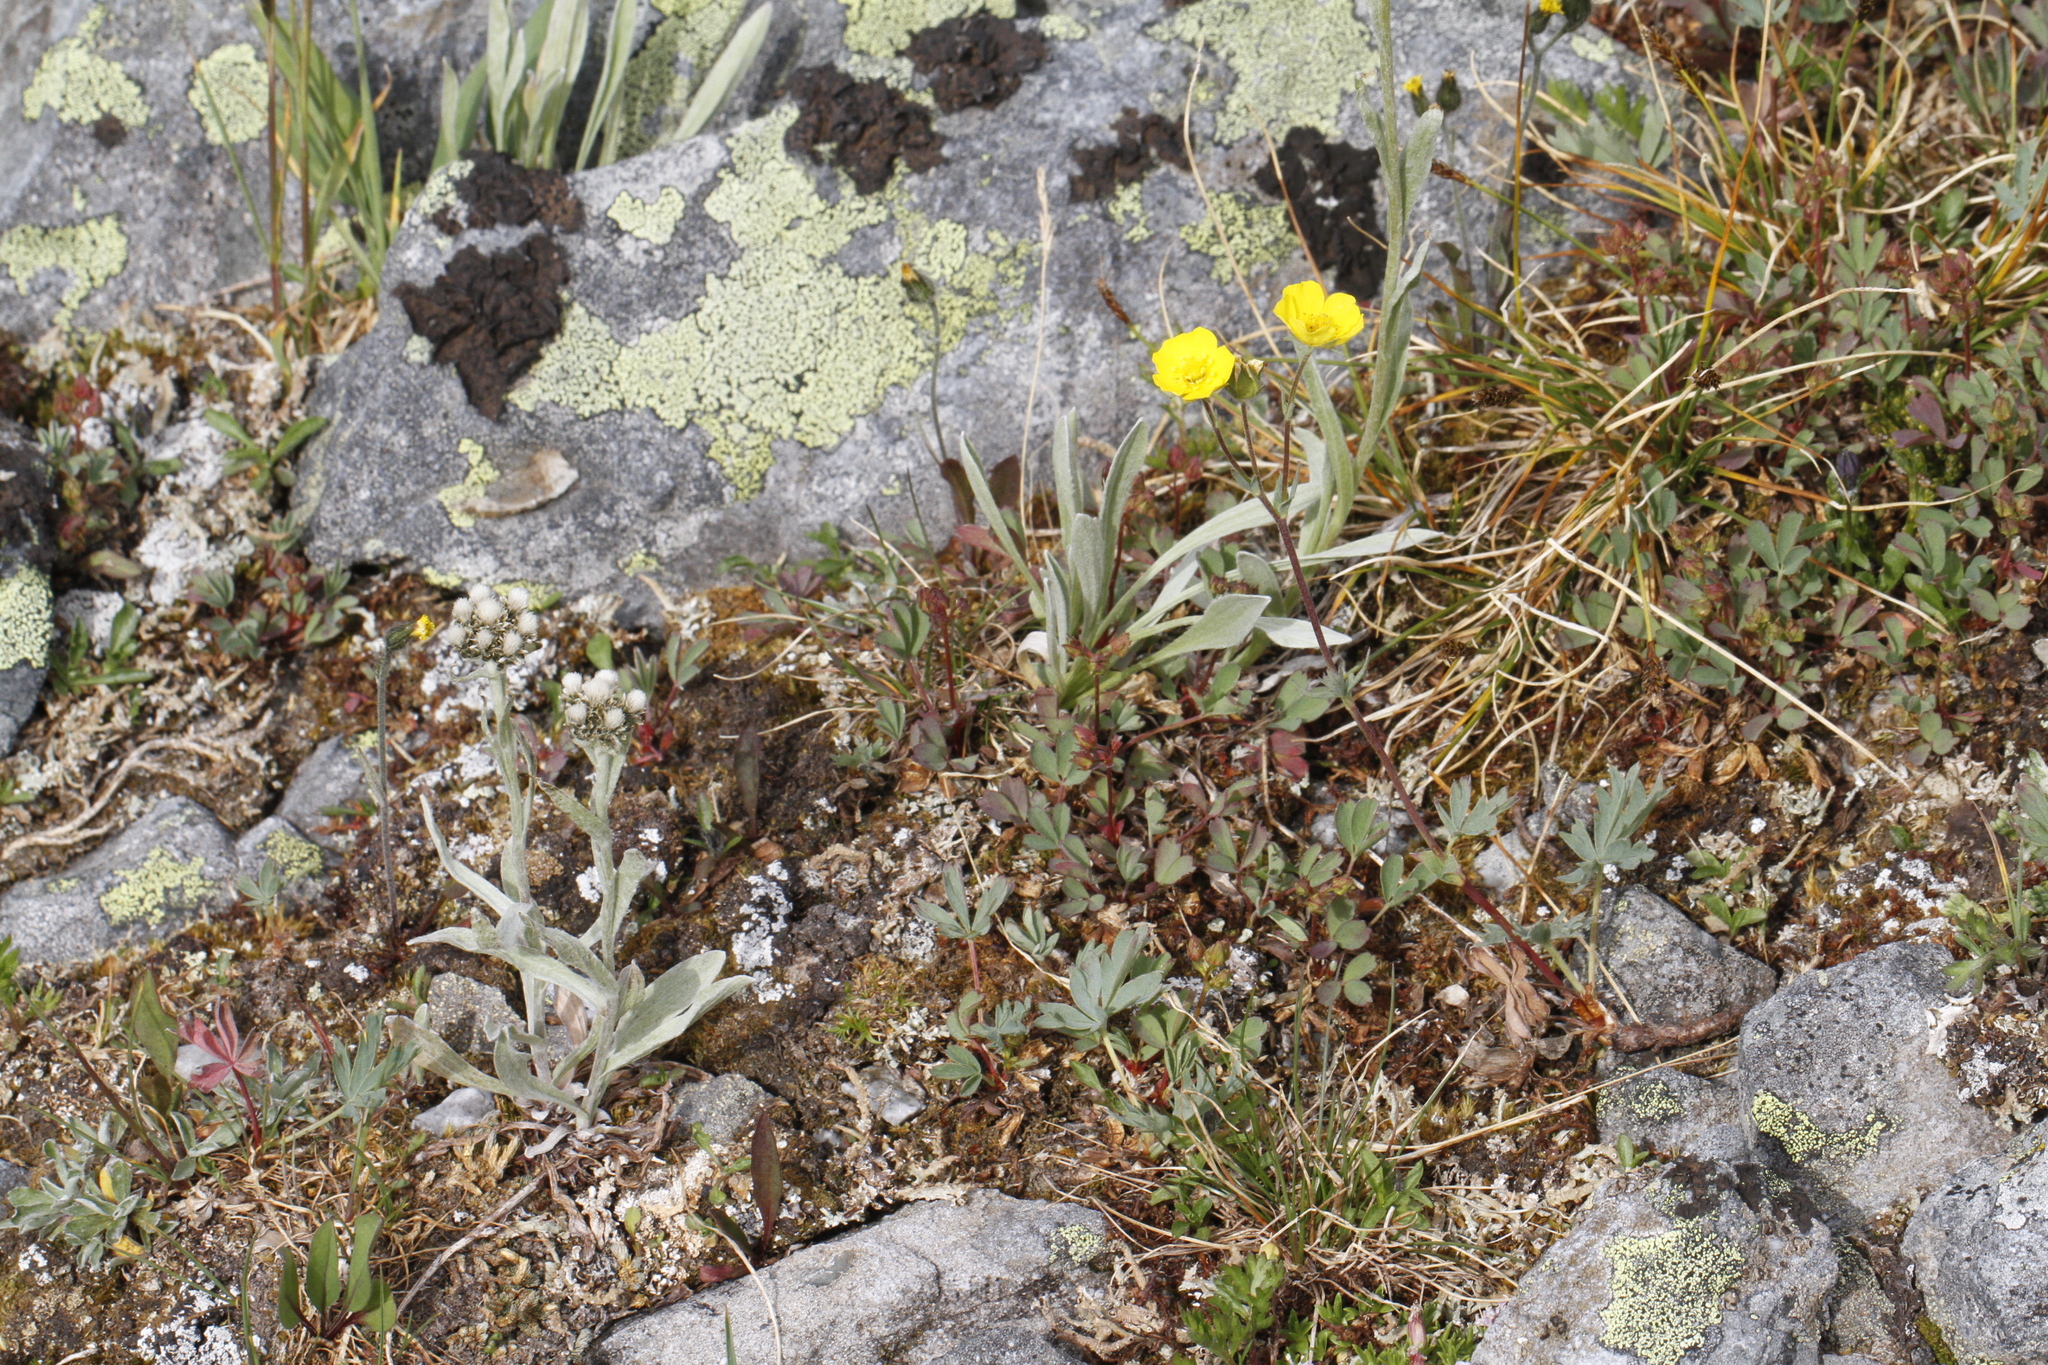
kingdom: Plantae
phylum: Tracheophyta
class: Magnoliopsida
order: Rosales
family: Rosaceae
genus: Potentilla
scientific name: Potentilla glaucophylla
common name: Blue-leaved cinquefoil
